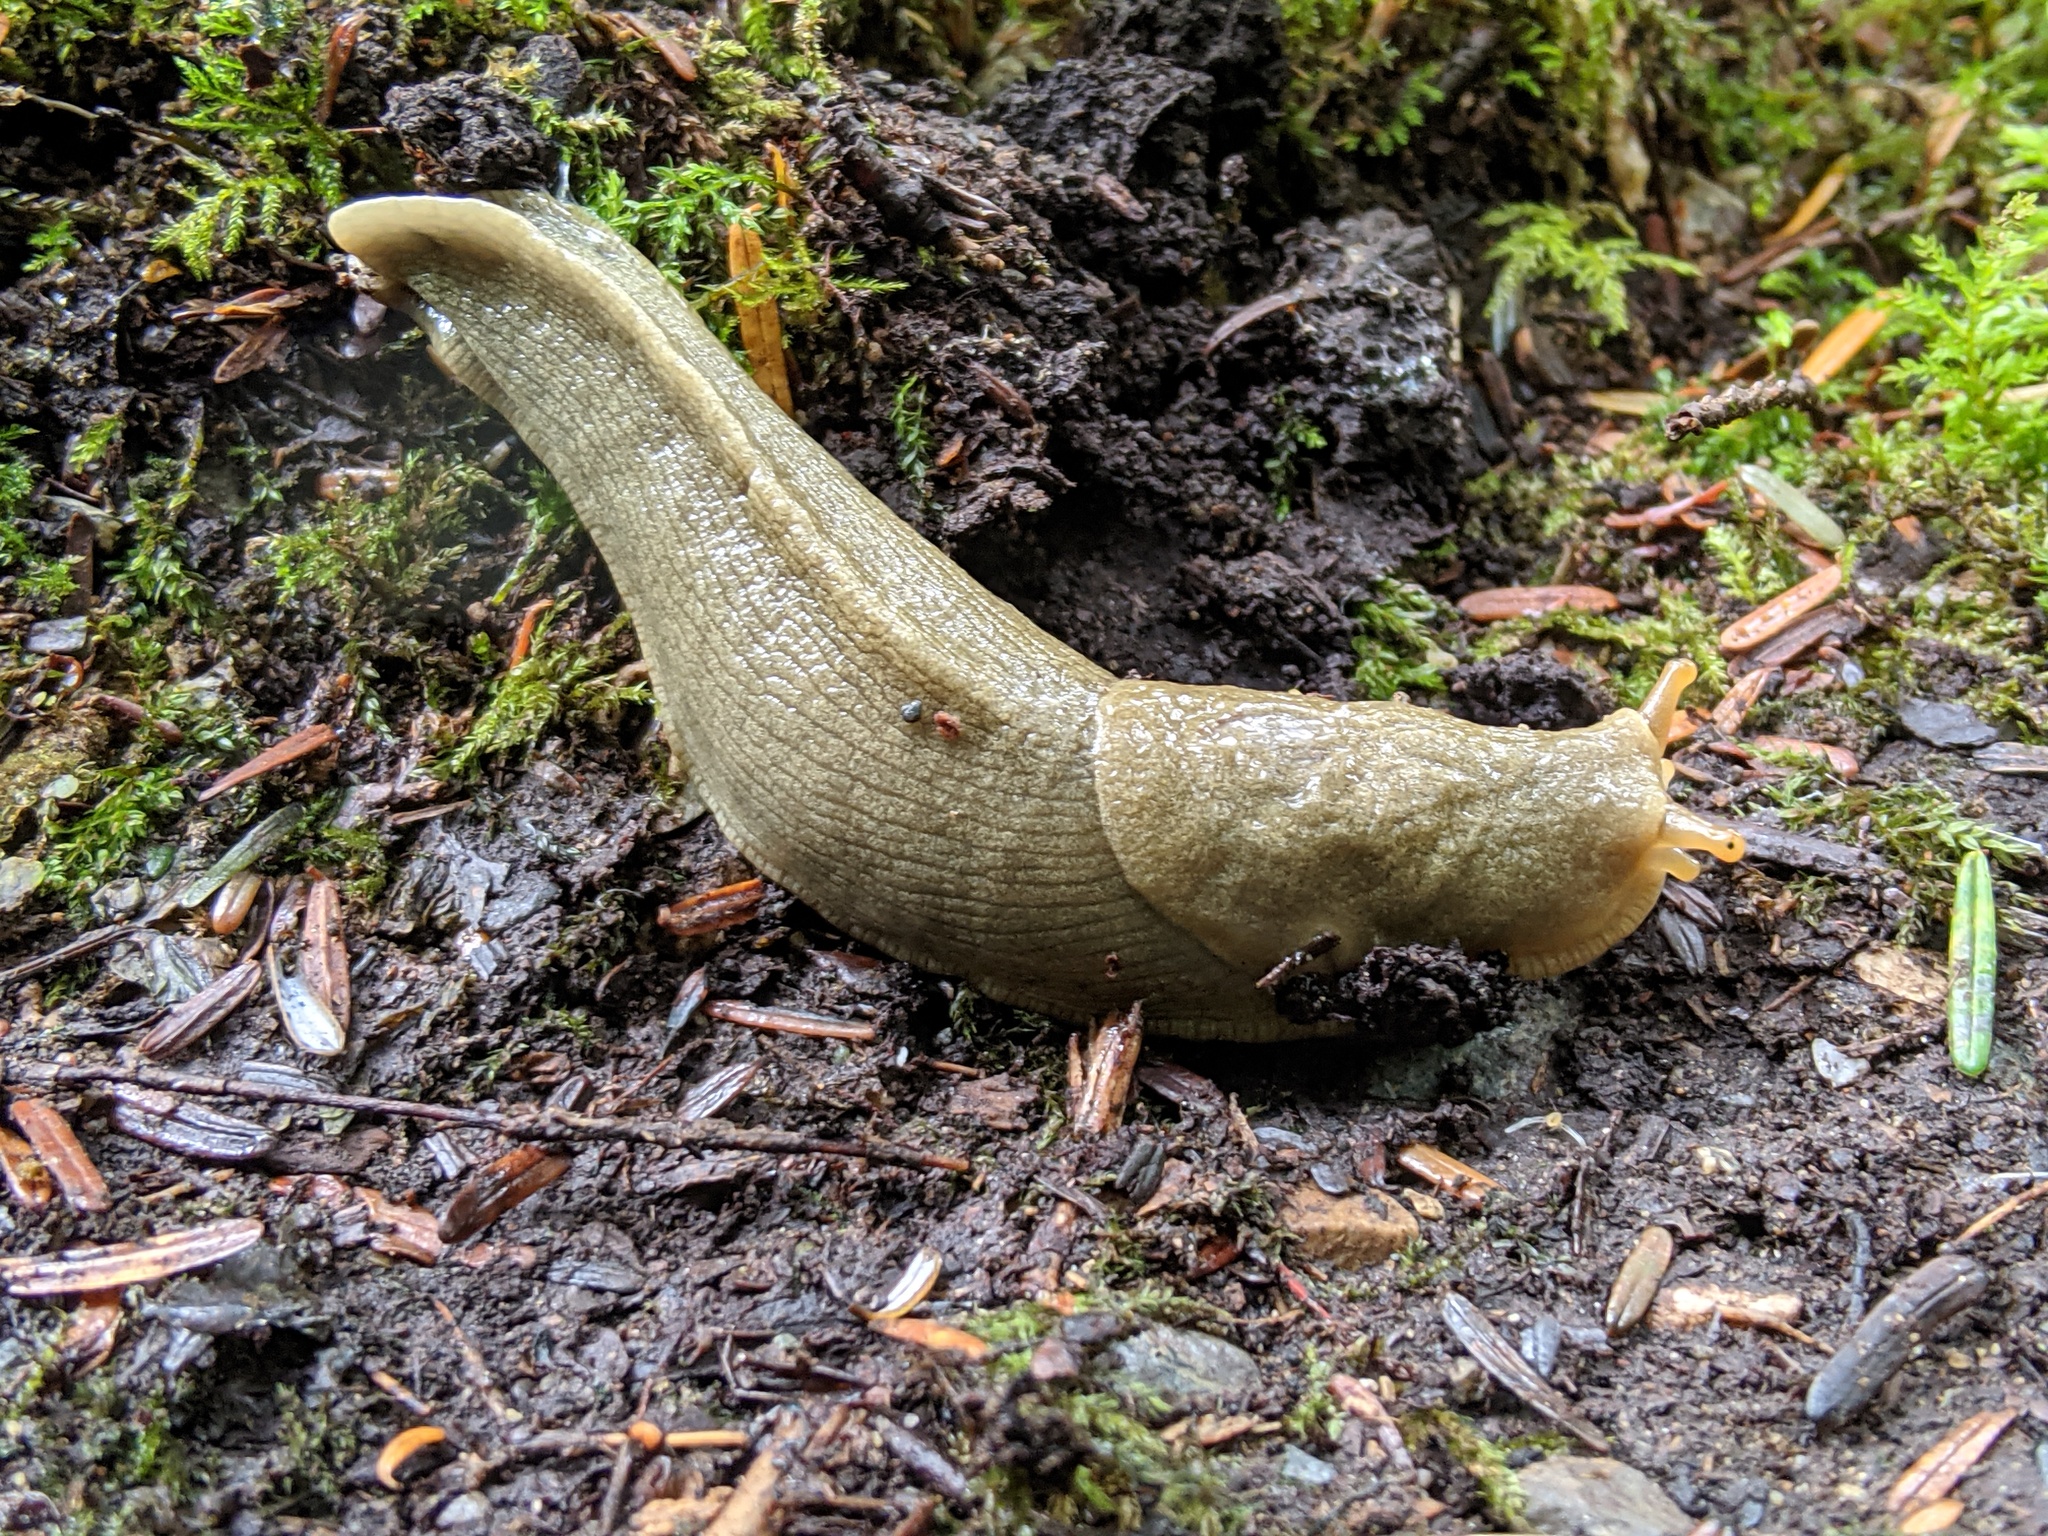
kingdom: Animalia
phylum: Mollusca
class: Gastropoda
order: Stylommatophora
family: Ariolimacidae
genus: Ariolimax
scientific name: Ariolimax columbianus
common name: Pacific banana slug
